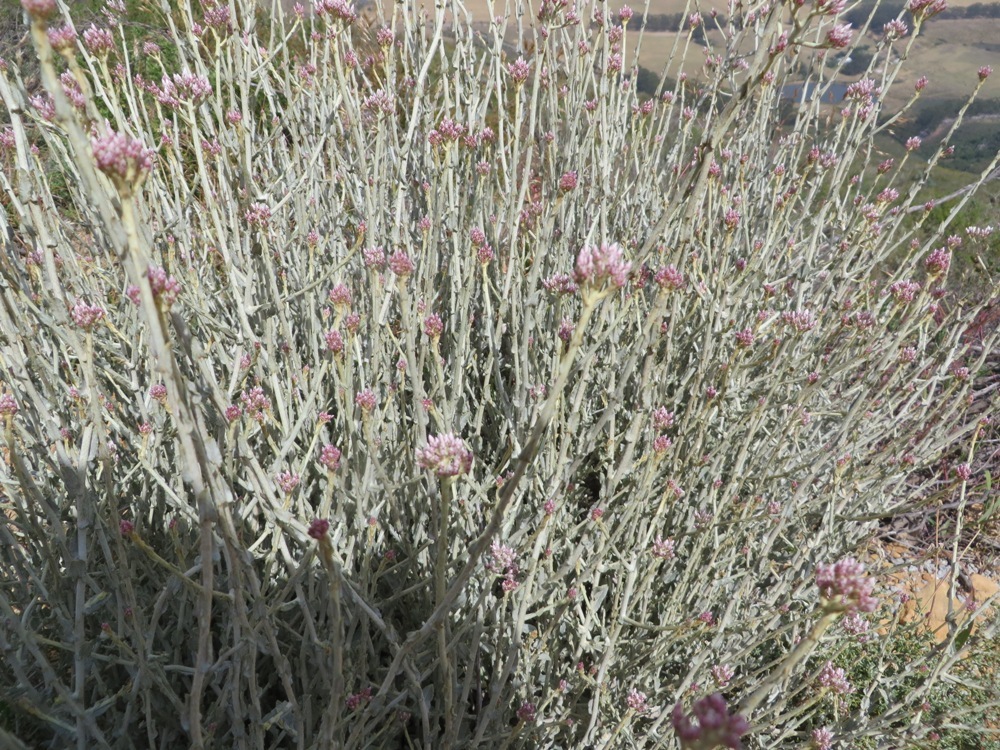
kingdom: Plantae
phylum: Tracheophyta
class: Magnoliopsida
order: Asterales
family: Asteraceae
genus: Helichrysum
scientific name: Helichrysum zeyheri
